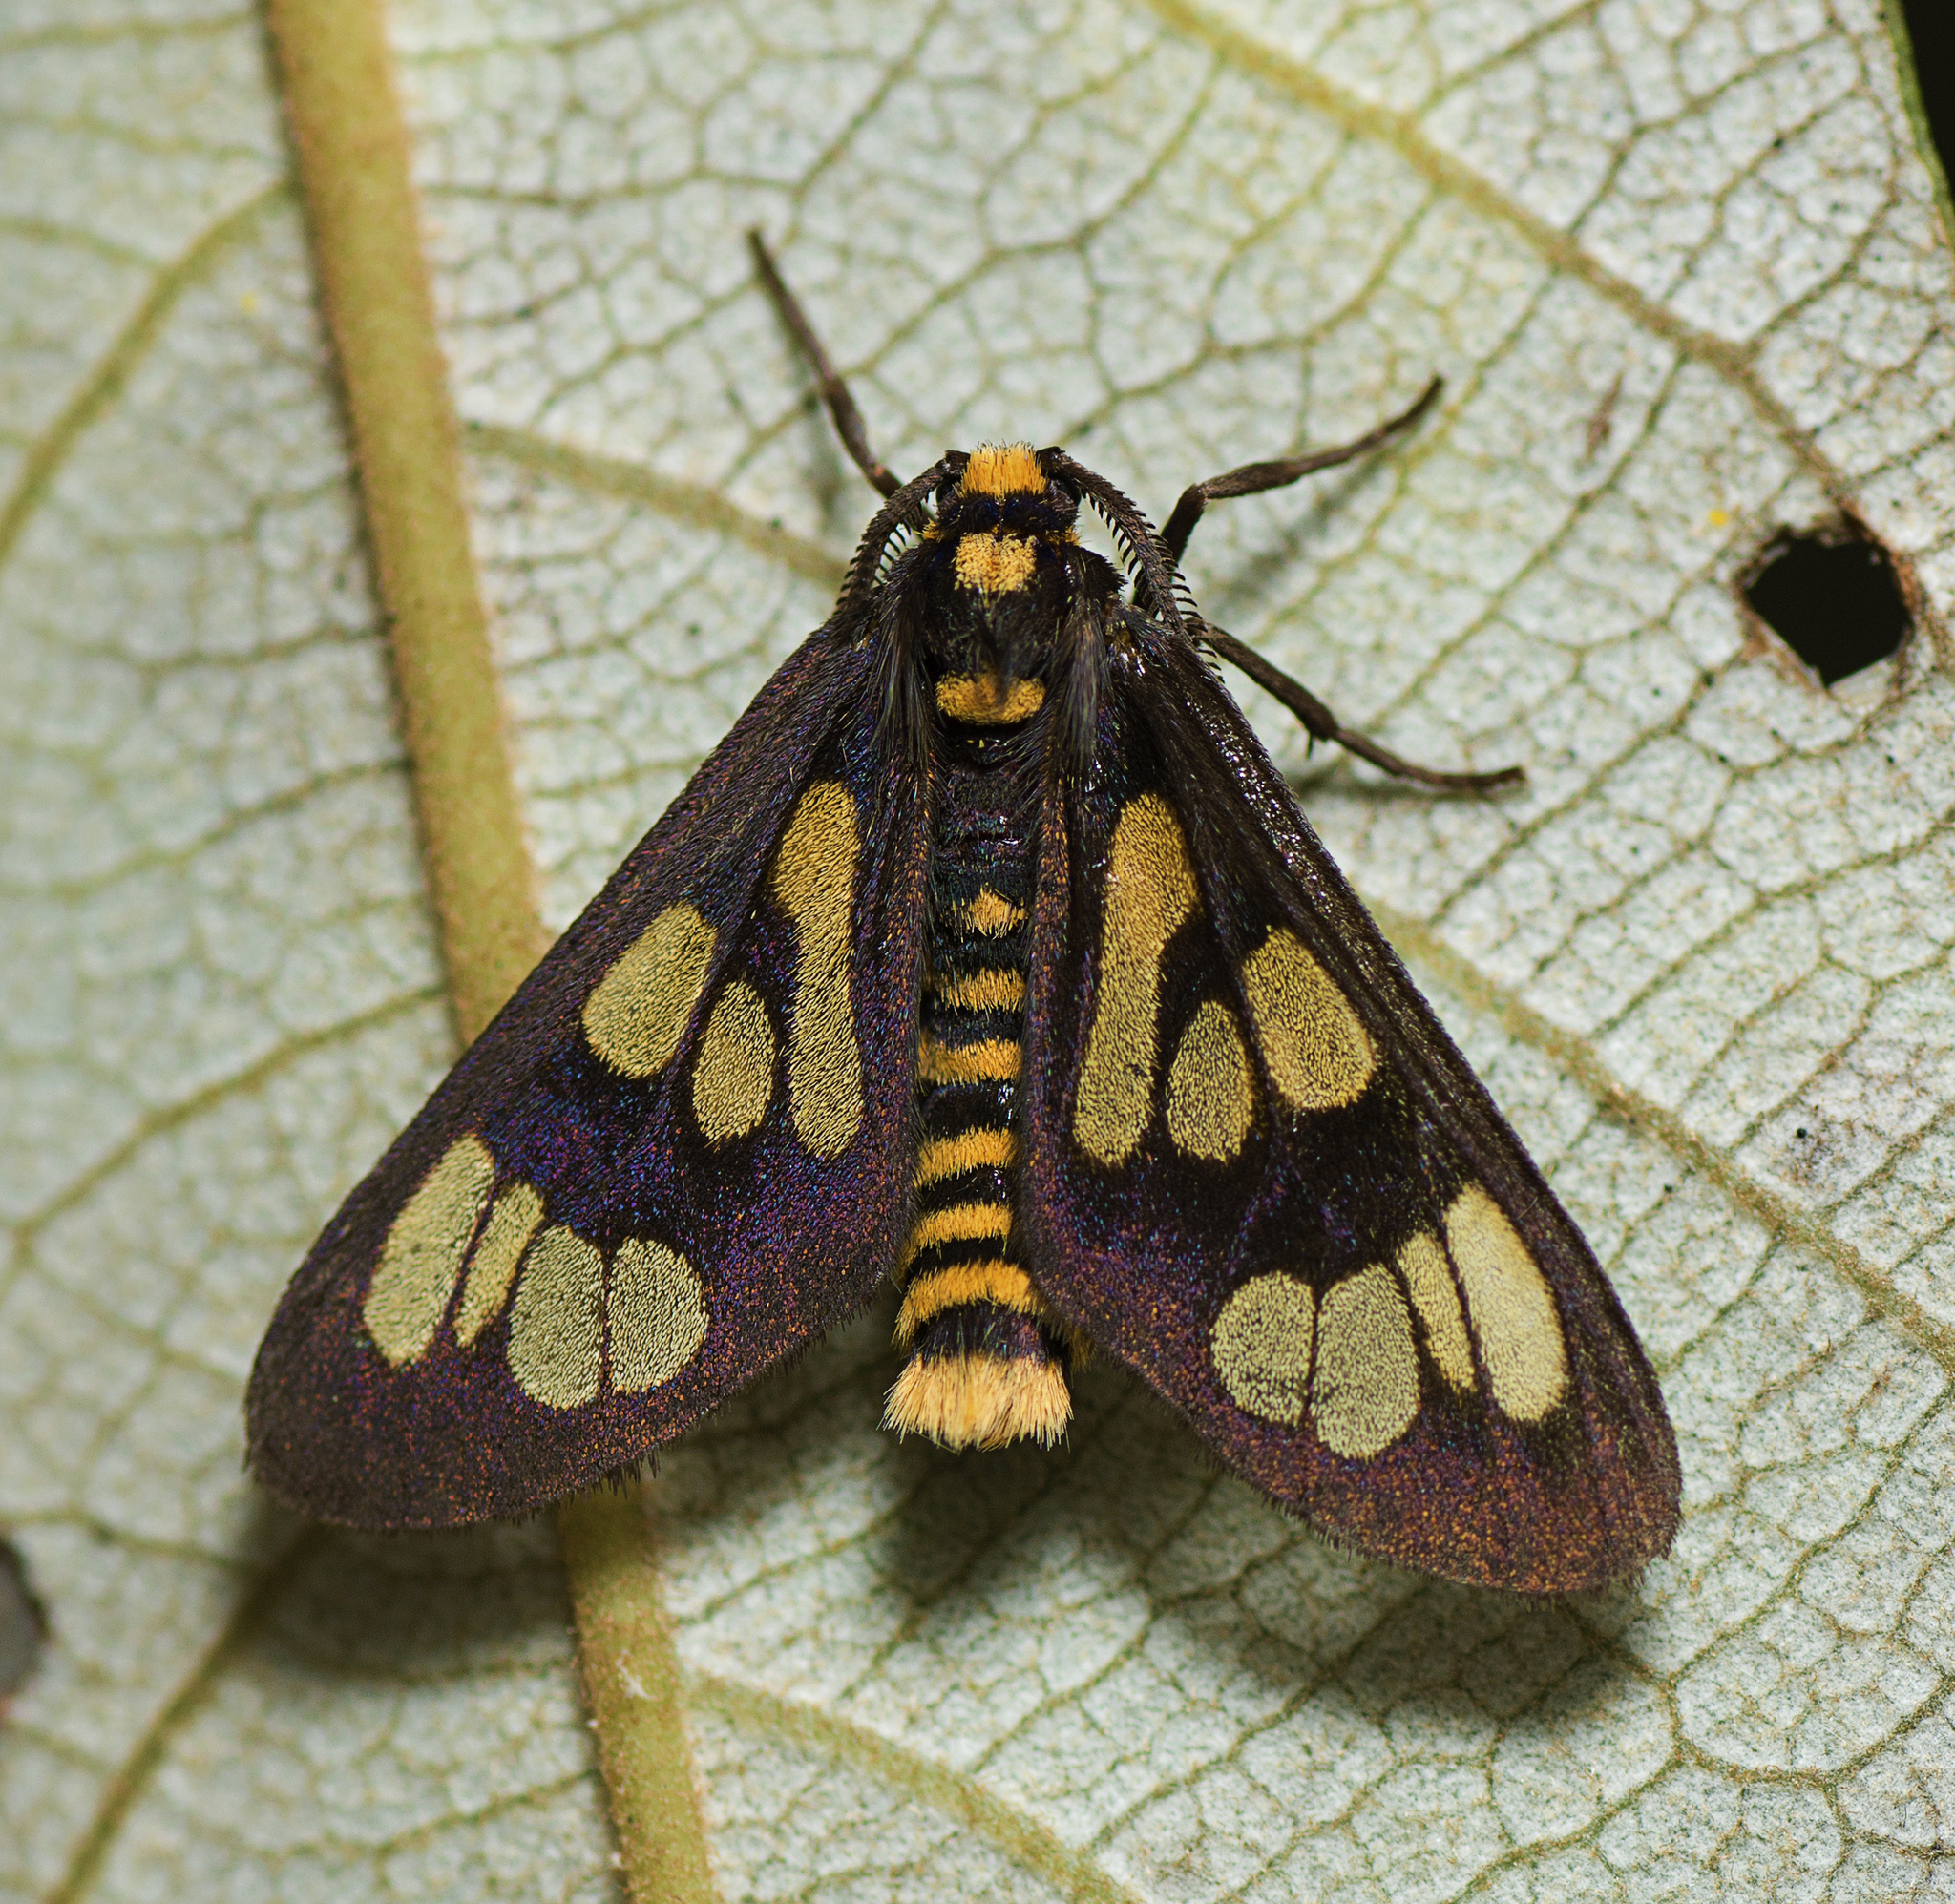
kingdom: Animalia
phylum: Arthropoda
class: Insecta
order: Lepidoptera
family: Erebidae
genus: Eressa
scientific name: Eressa geographica
